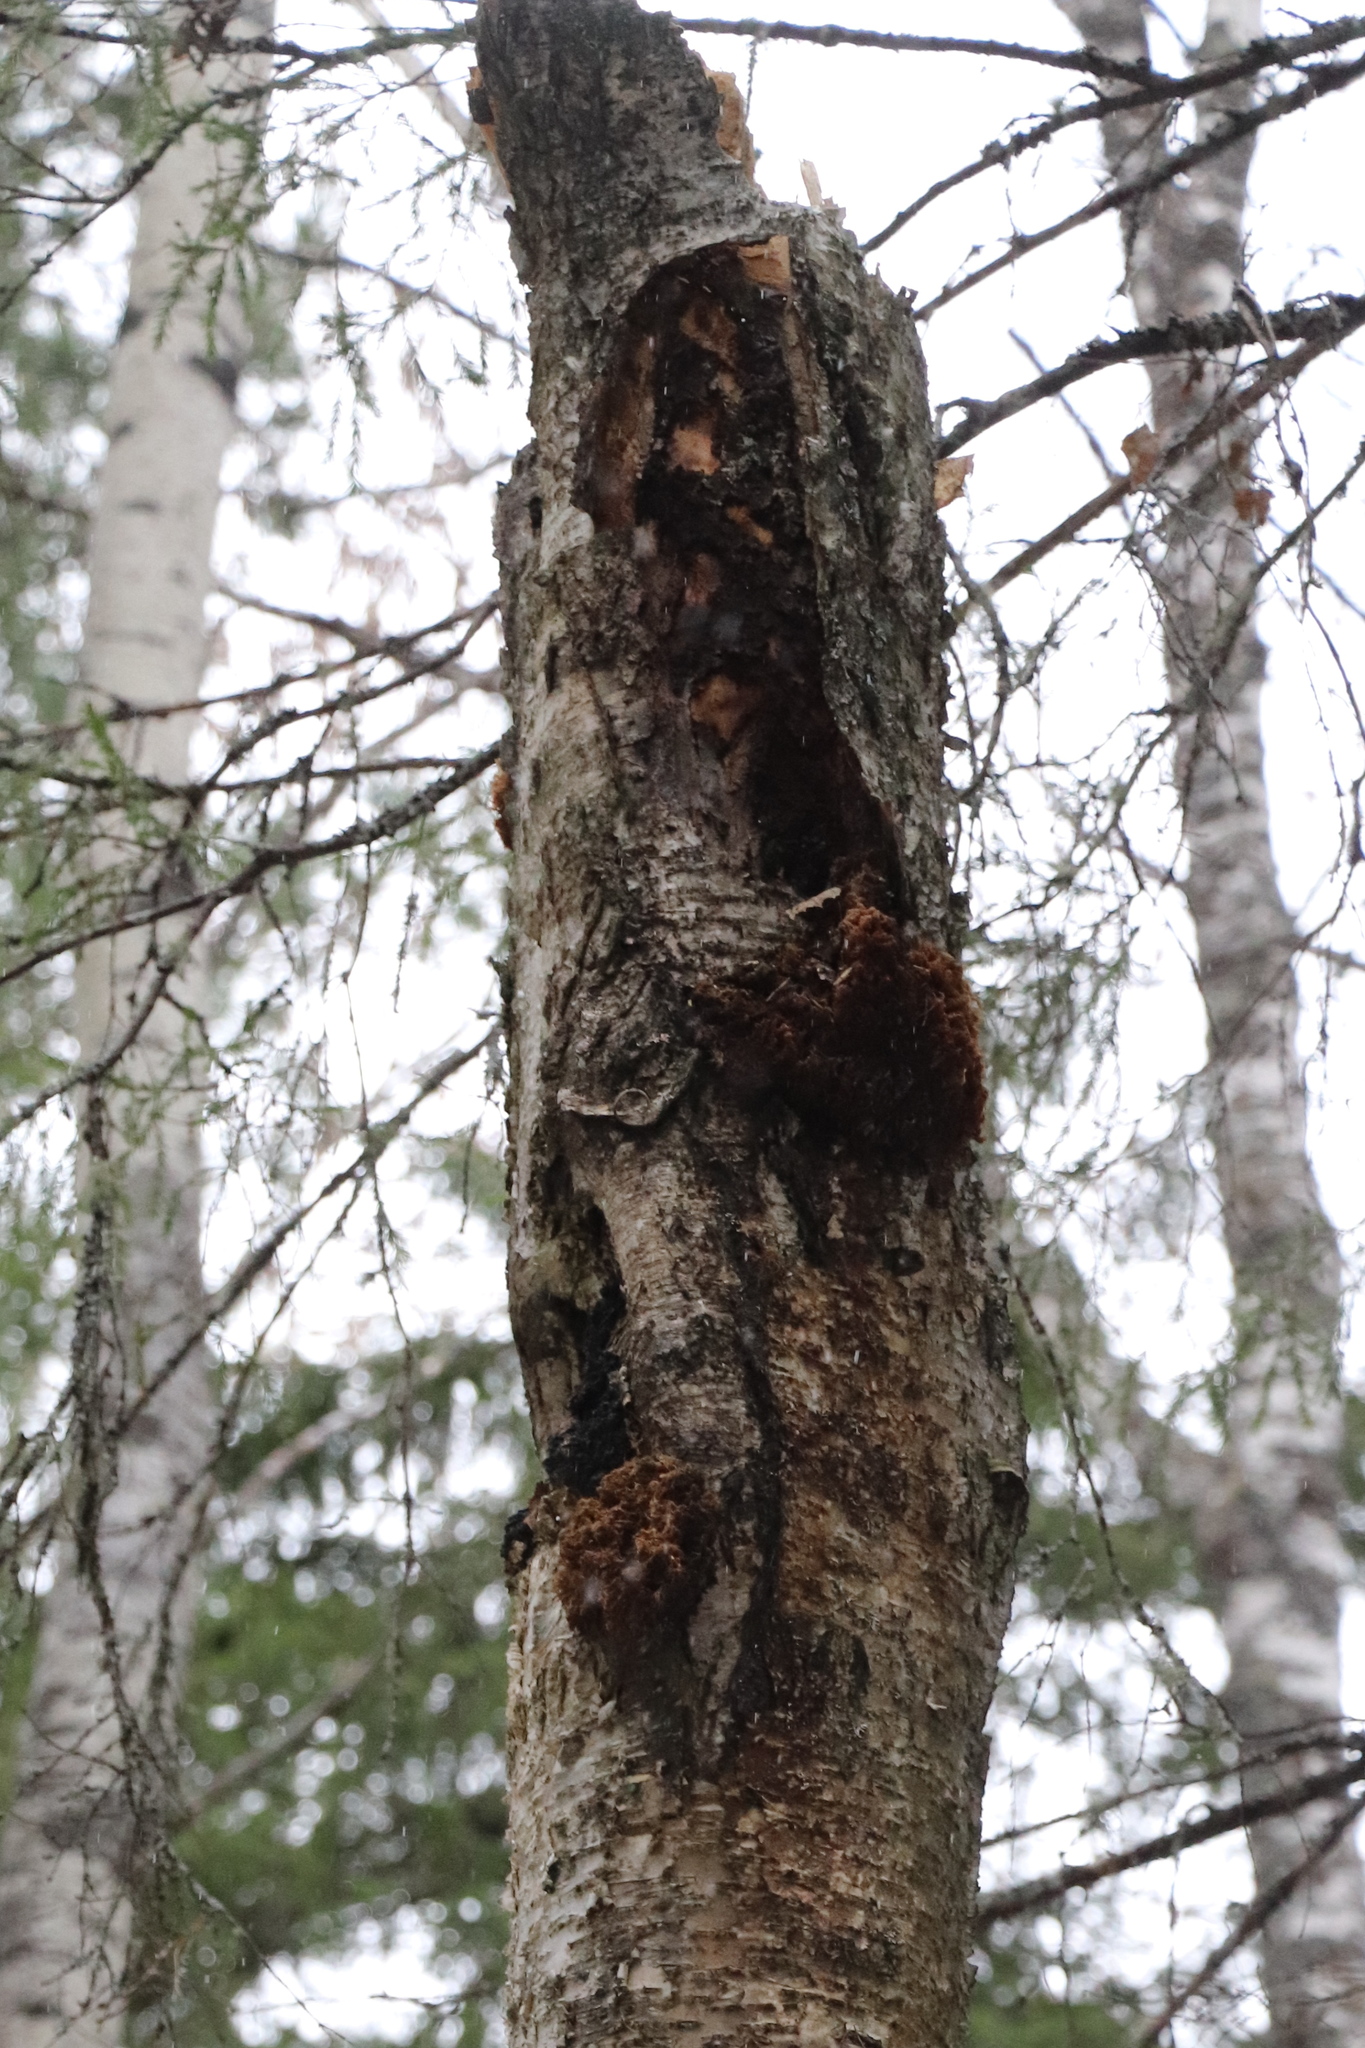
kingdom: Fungi
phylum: Basidiomycota
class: Agaricomycetes
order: Russulales
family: Hericiaceae
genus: Hericium
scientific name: Hericium coralloides
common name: Coral tooth
